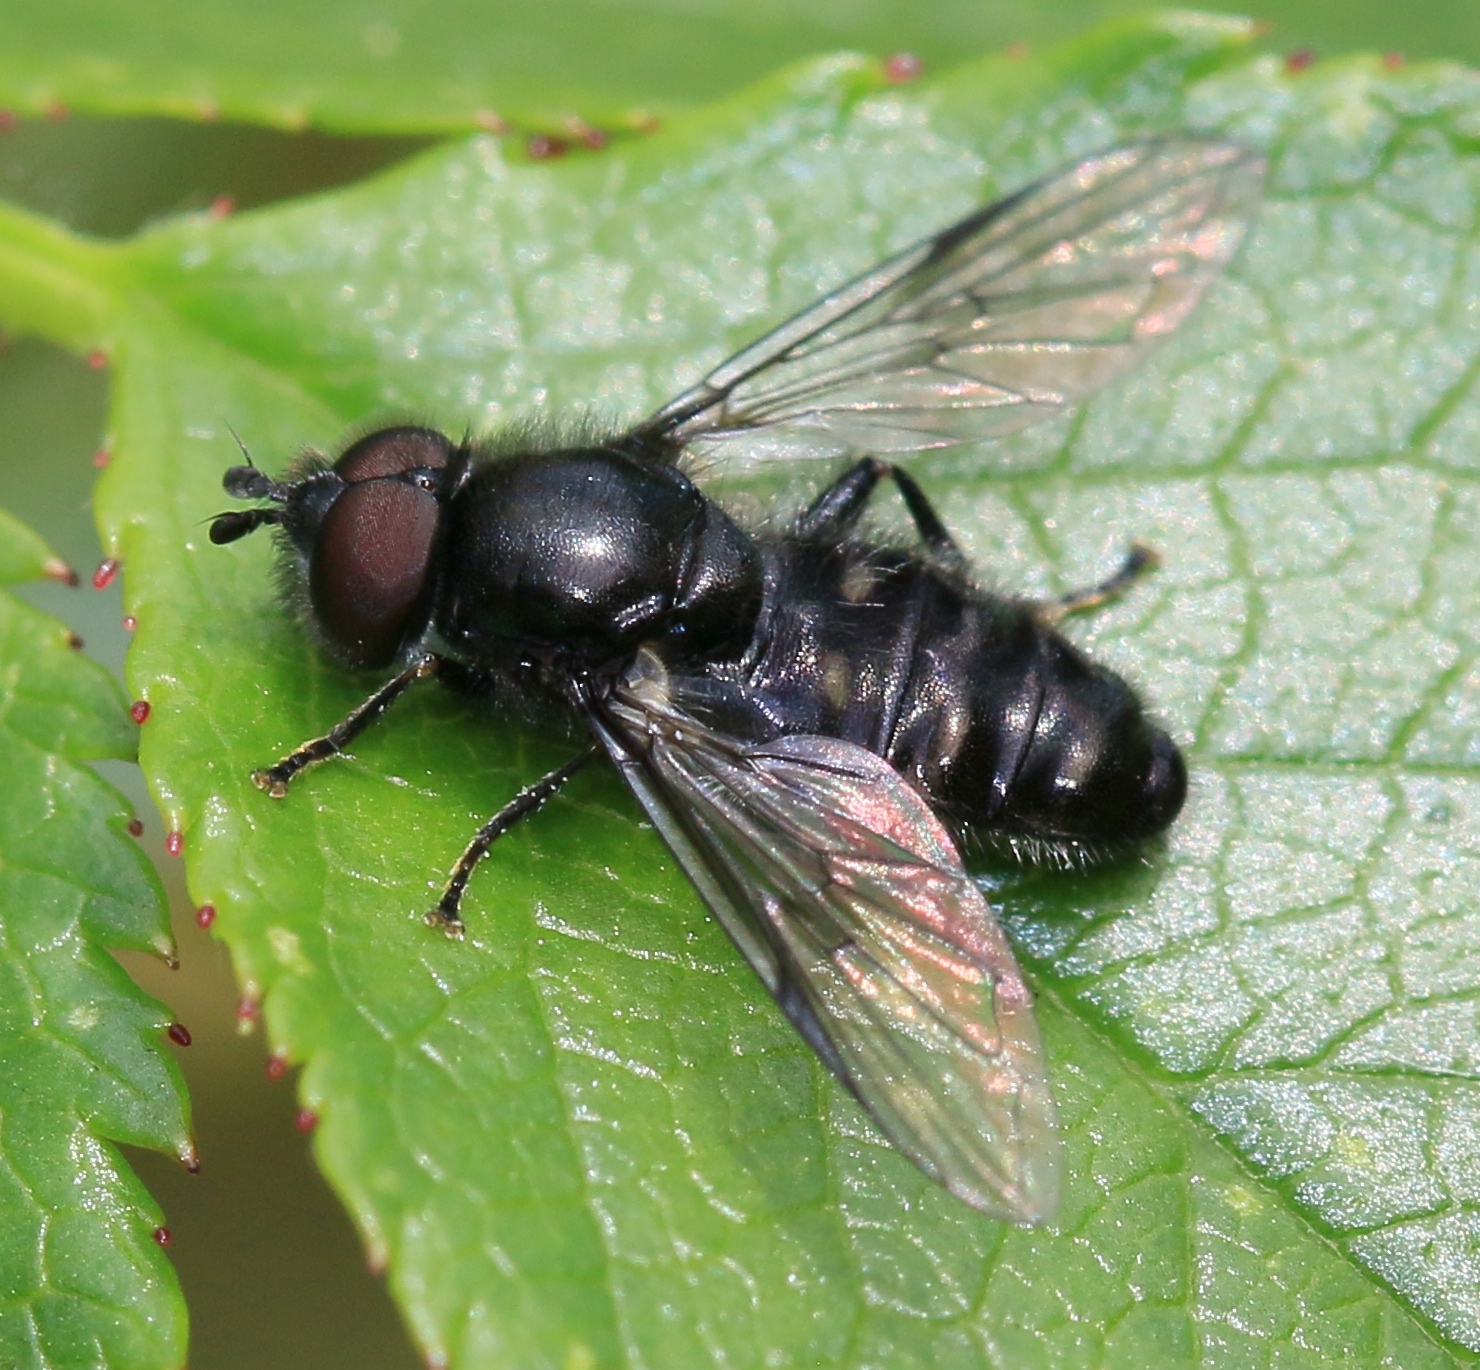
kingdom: Animalia
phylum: Arthropoda
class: Insecta
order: Diptera
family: Syrphidae
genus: Pipiza
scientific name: Pipiza
